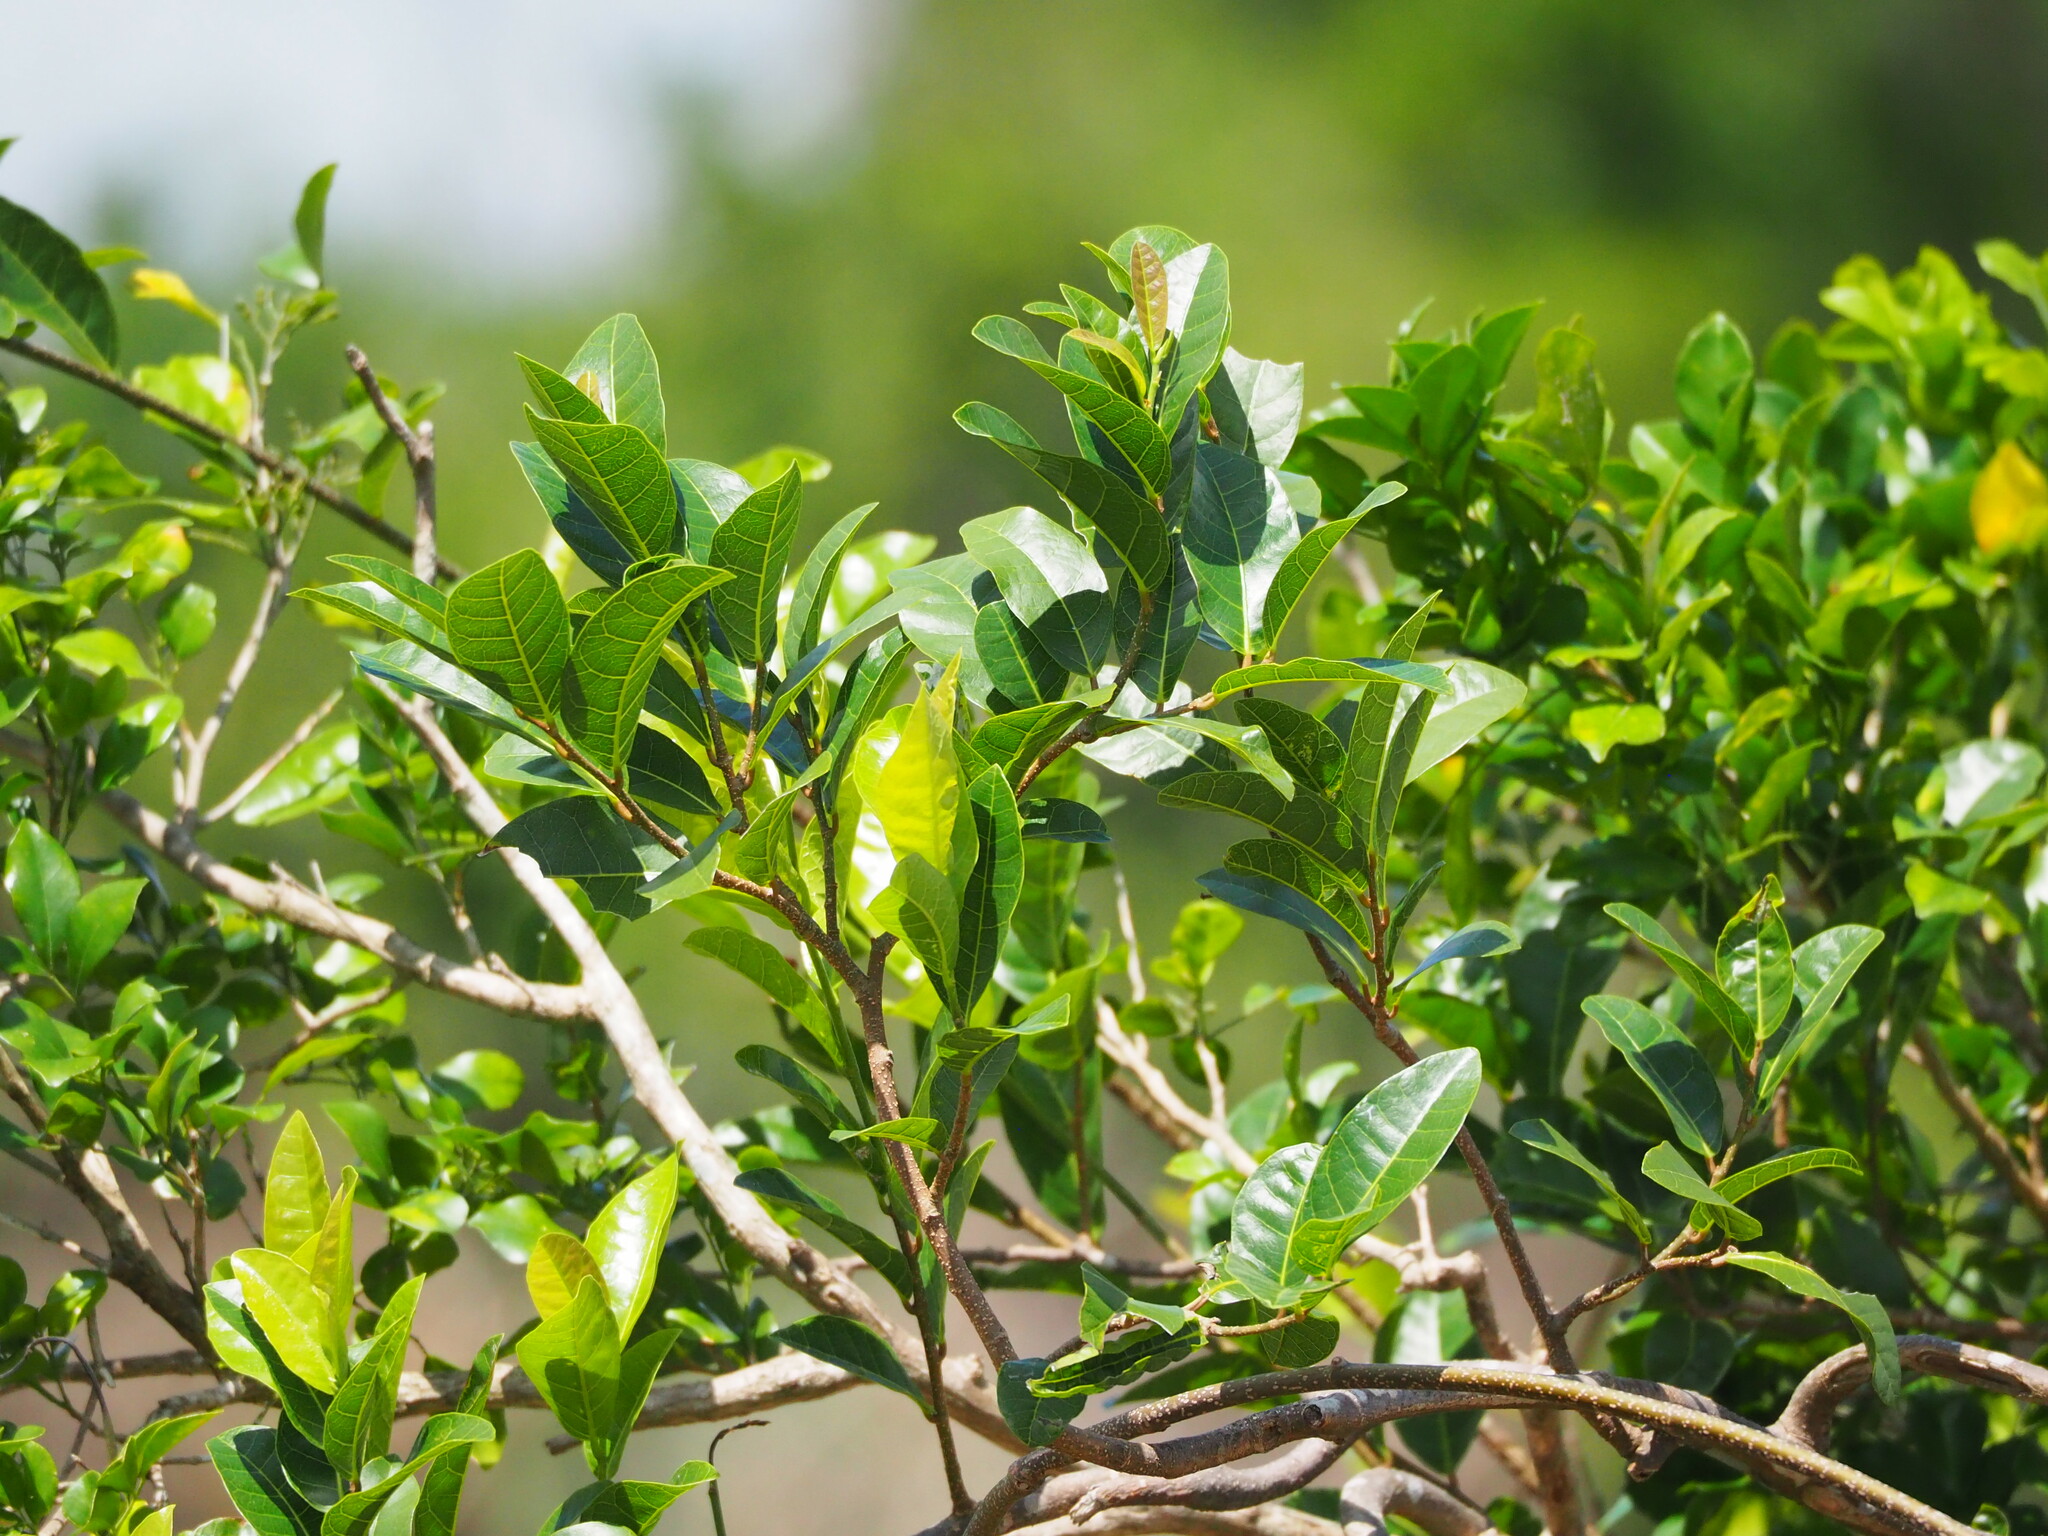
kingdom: Plantae
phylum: Tracheophyta
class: Magnoliopsida
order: Rosales
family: Moraceae
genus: Malaisia
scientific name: Malaisia scandens
